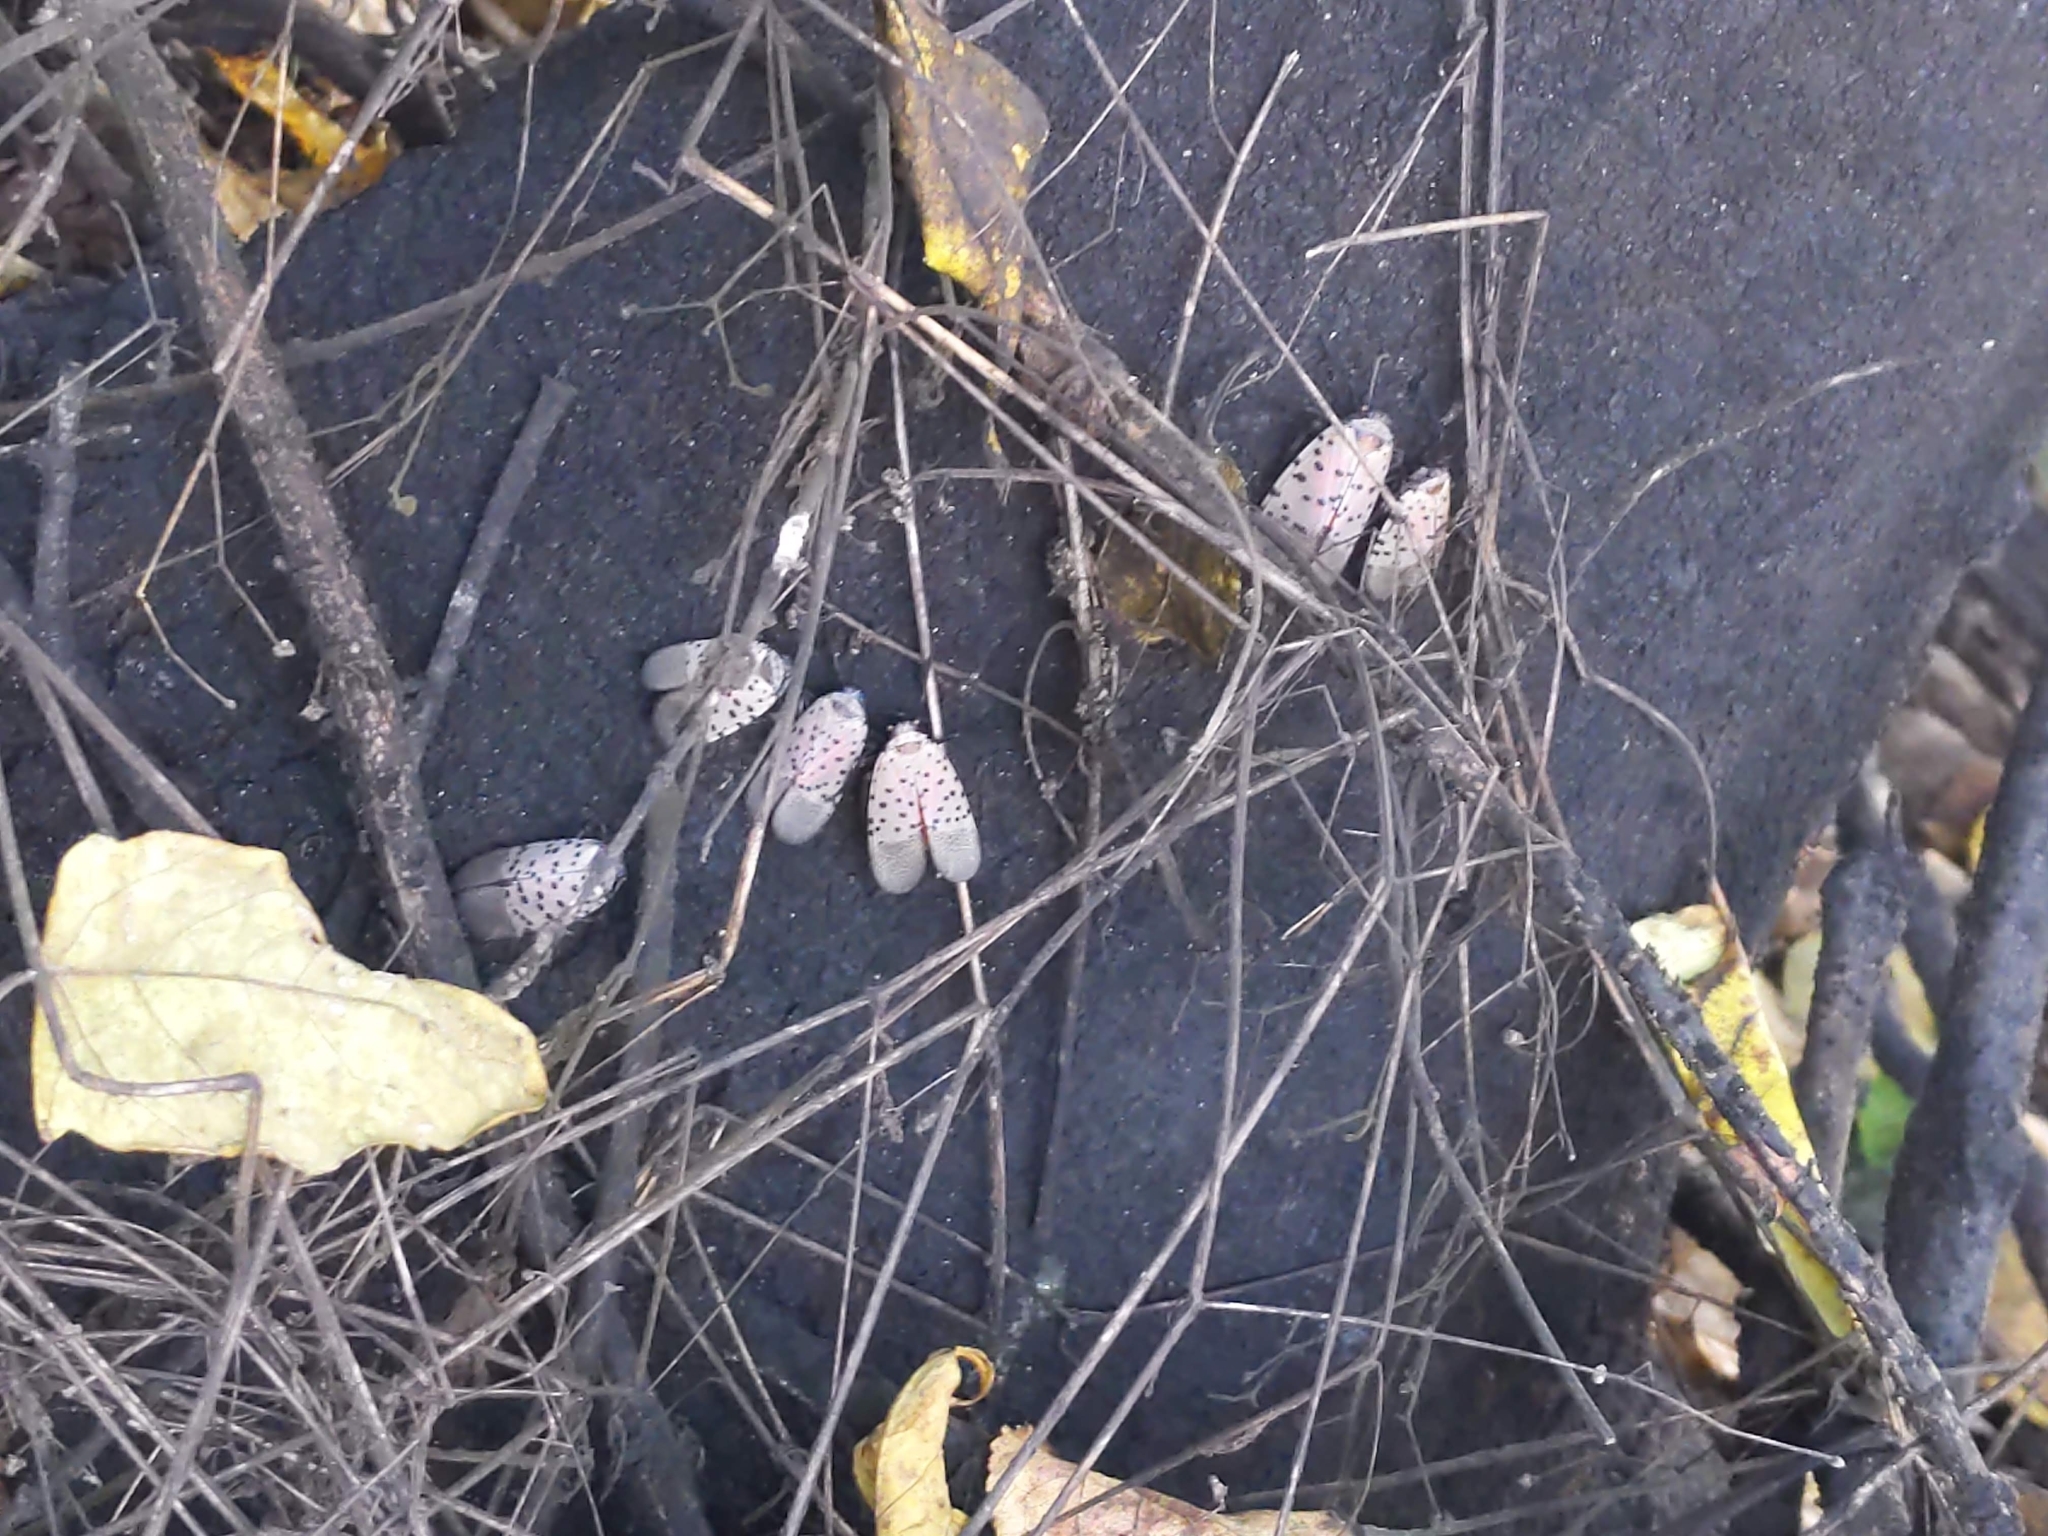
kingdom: Animalia
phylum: Arthropoda
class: Insecta
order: Hemiptera
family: Fulgoridae
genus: Lycorma
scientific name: Lycorma delicatula
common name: Spotted lanternfly
